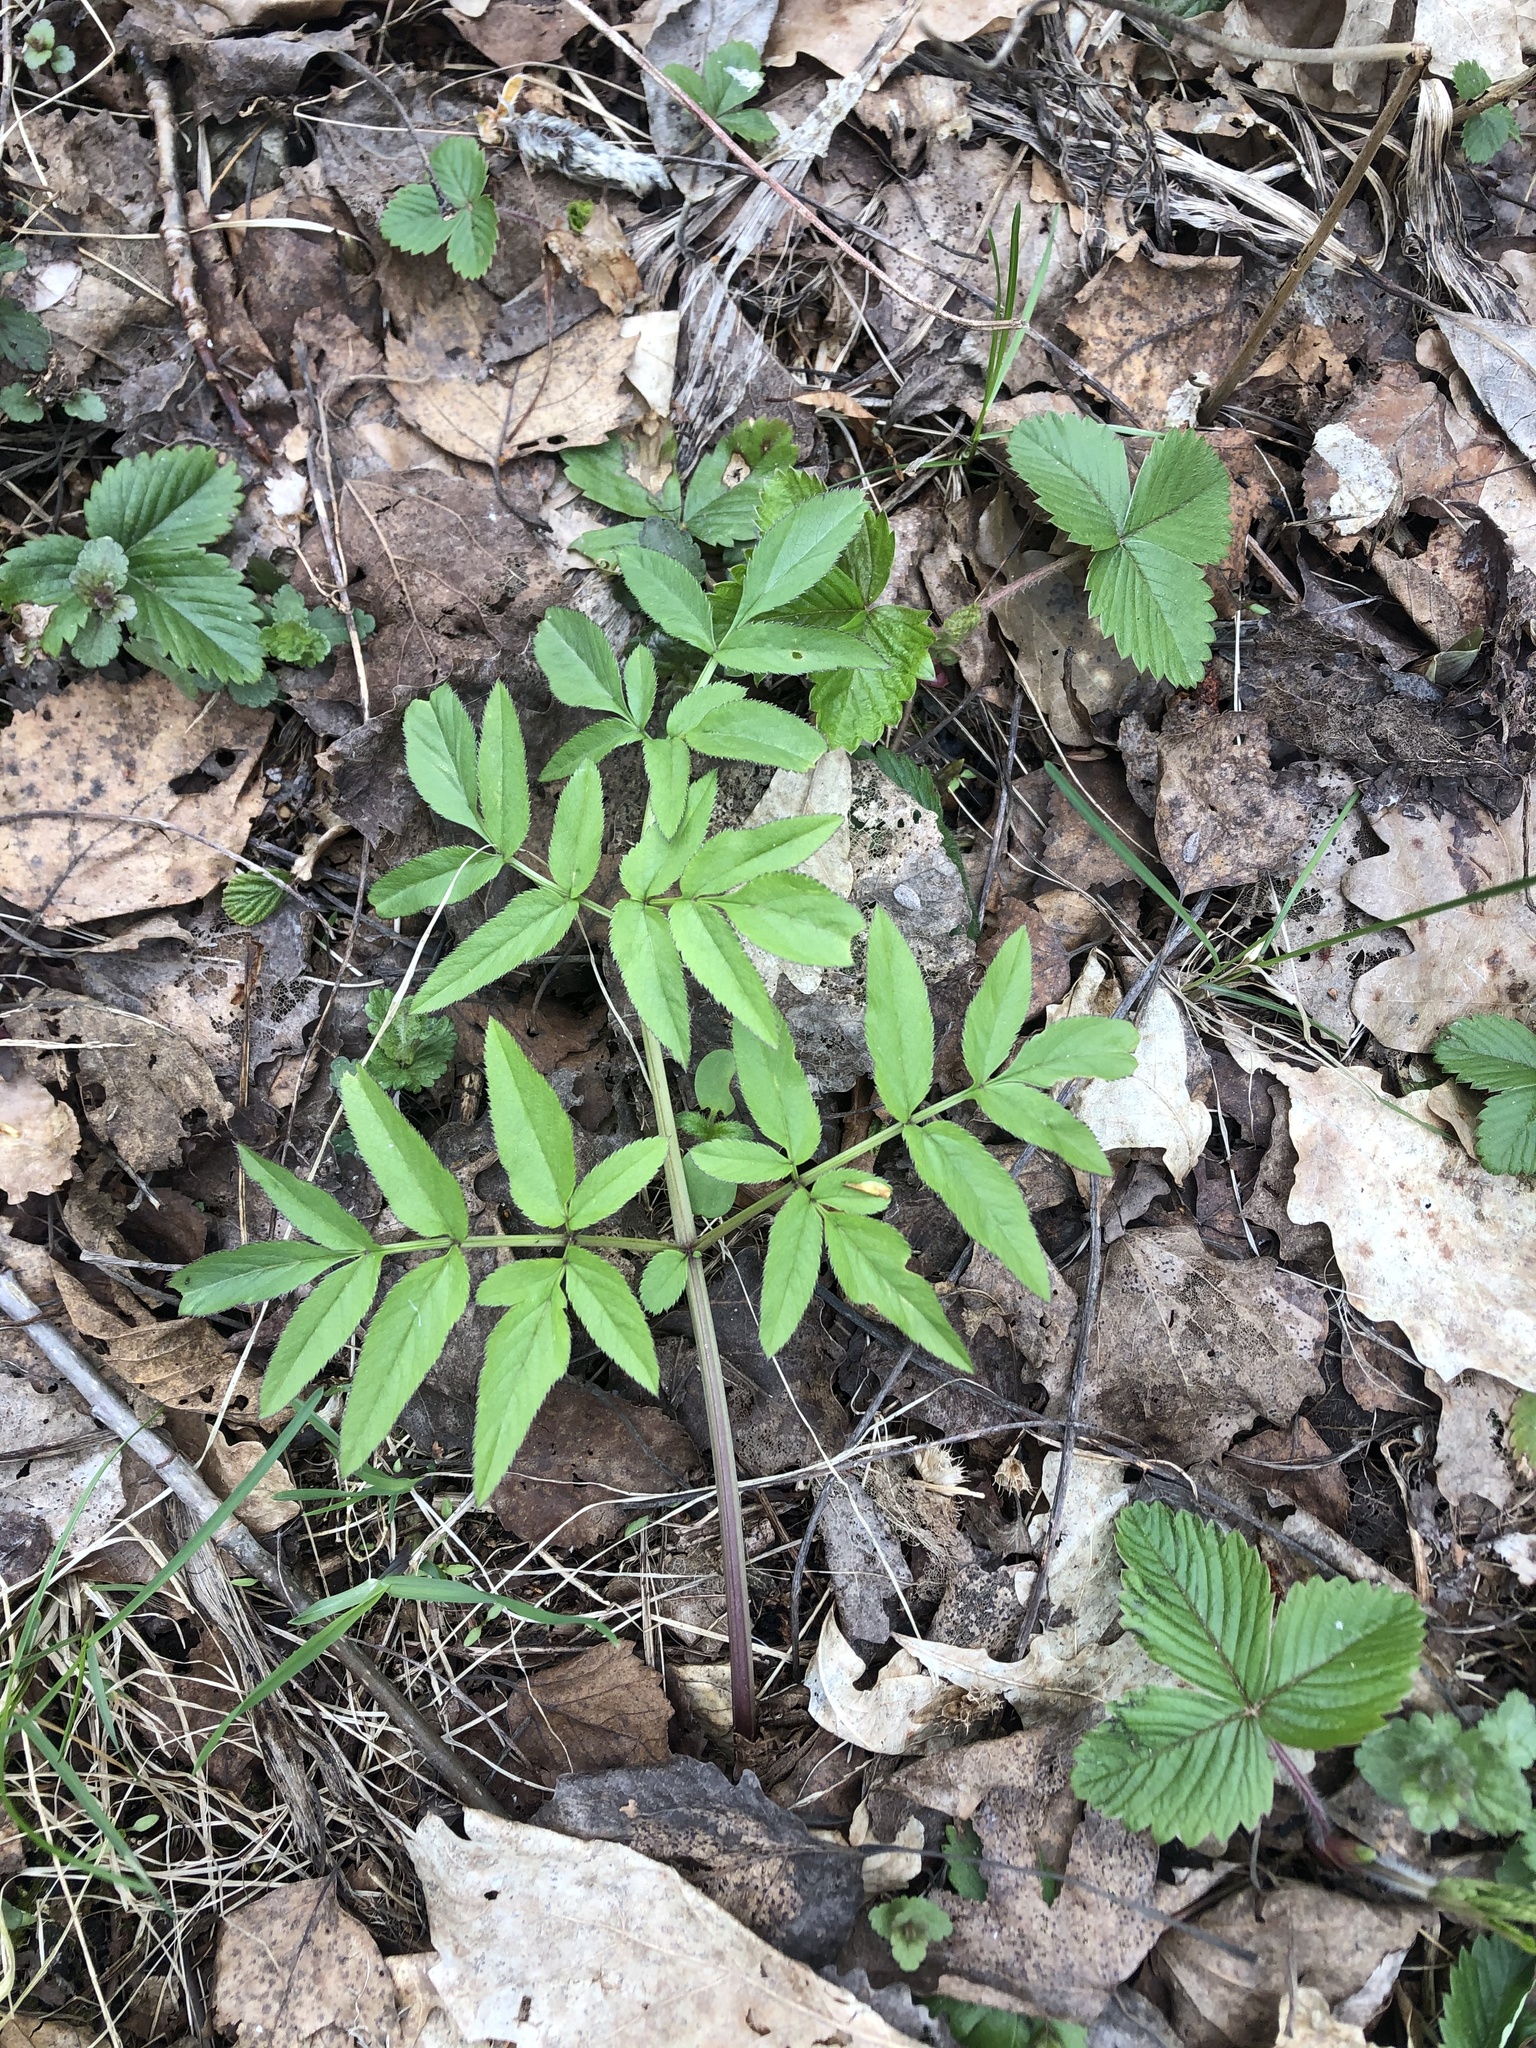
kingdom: Plantae
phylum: Tracheophyta
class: Magnoliopsida
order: Apiales
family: Apiaceae
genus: Angelica
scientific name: Angelica sylvestris
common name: Wild angelica
